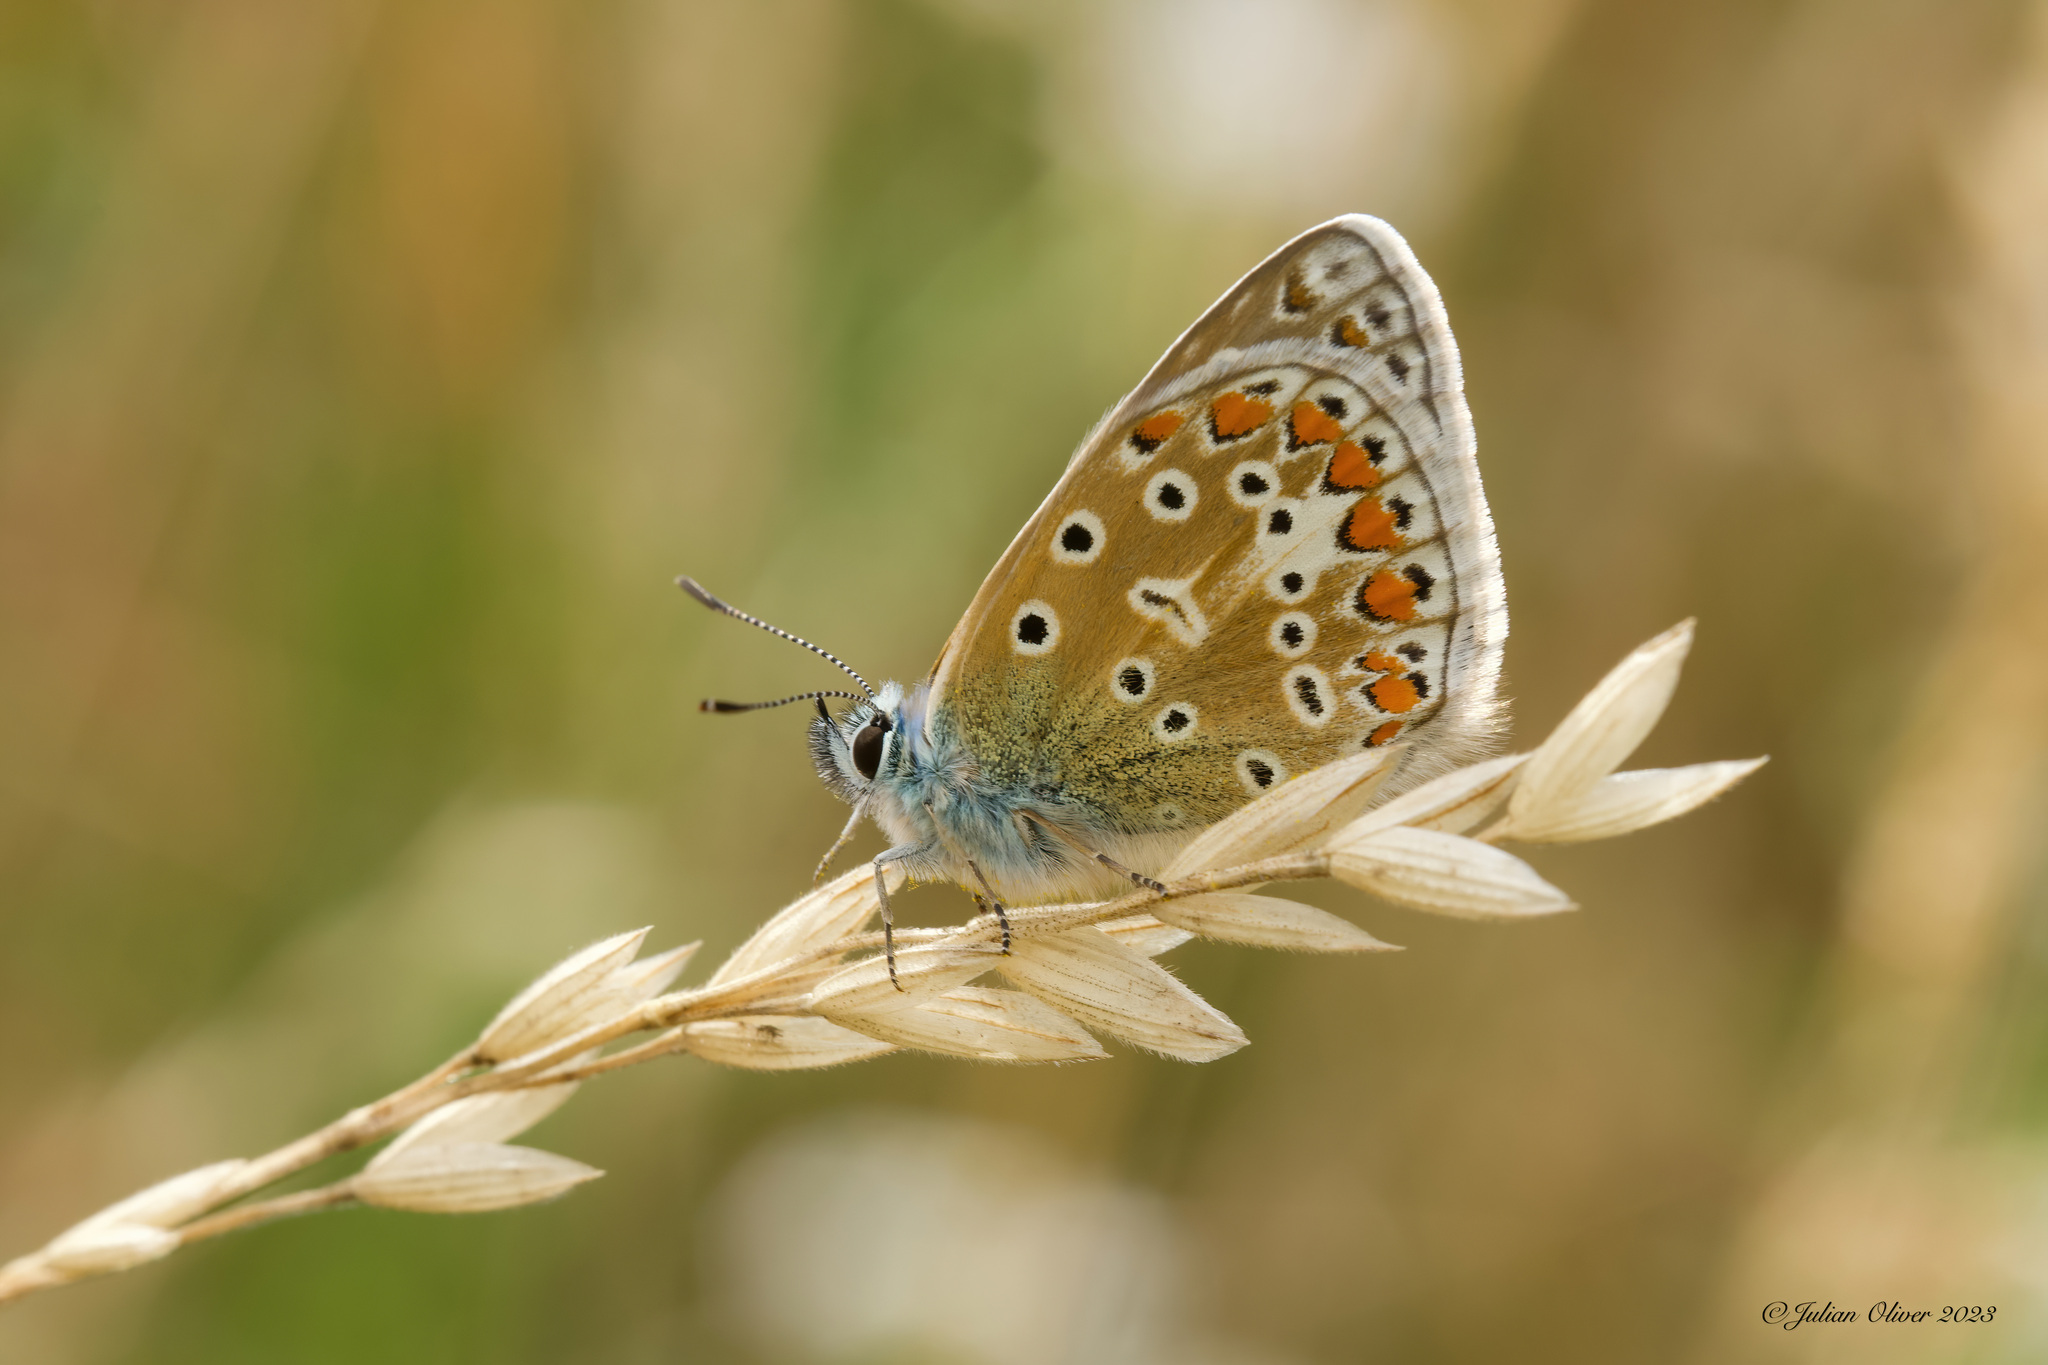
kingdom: Animalia
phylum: Arthropoda
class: Insecta
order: Lepidoptera
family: Lycaenidae
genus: Polyommatus
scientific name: Polyommatus icarus
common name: Common blue
